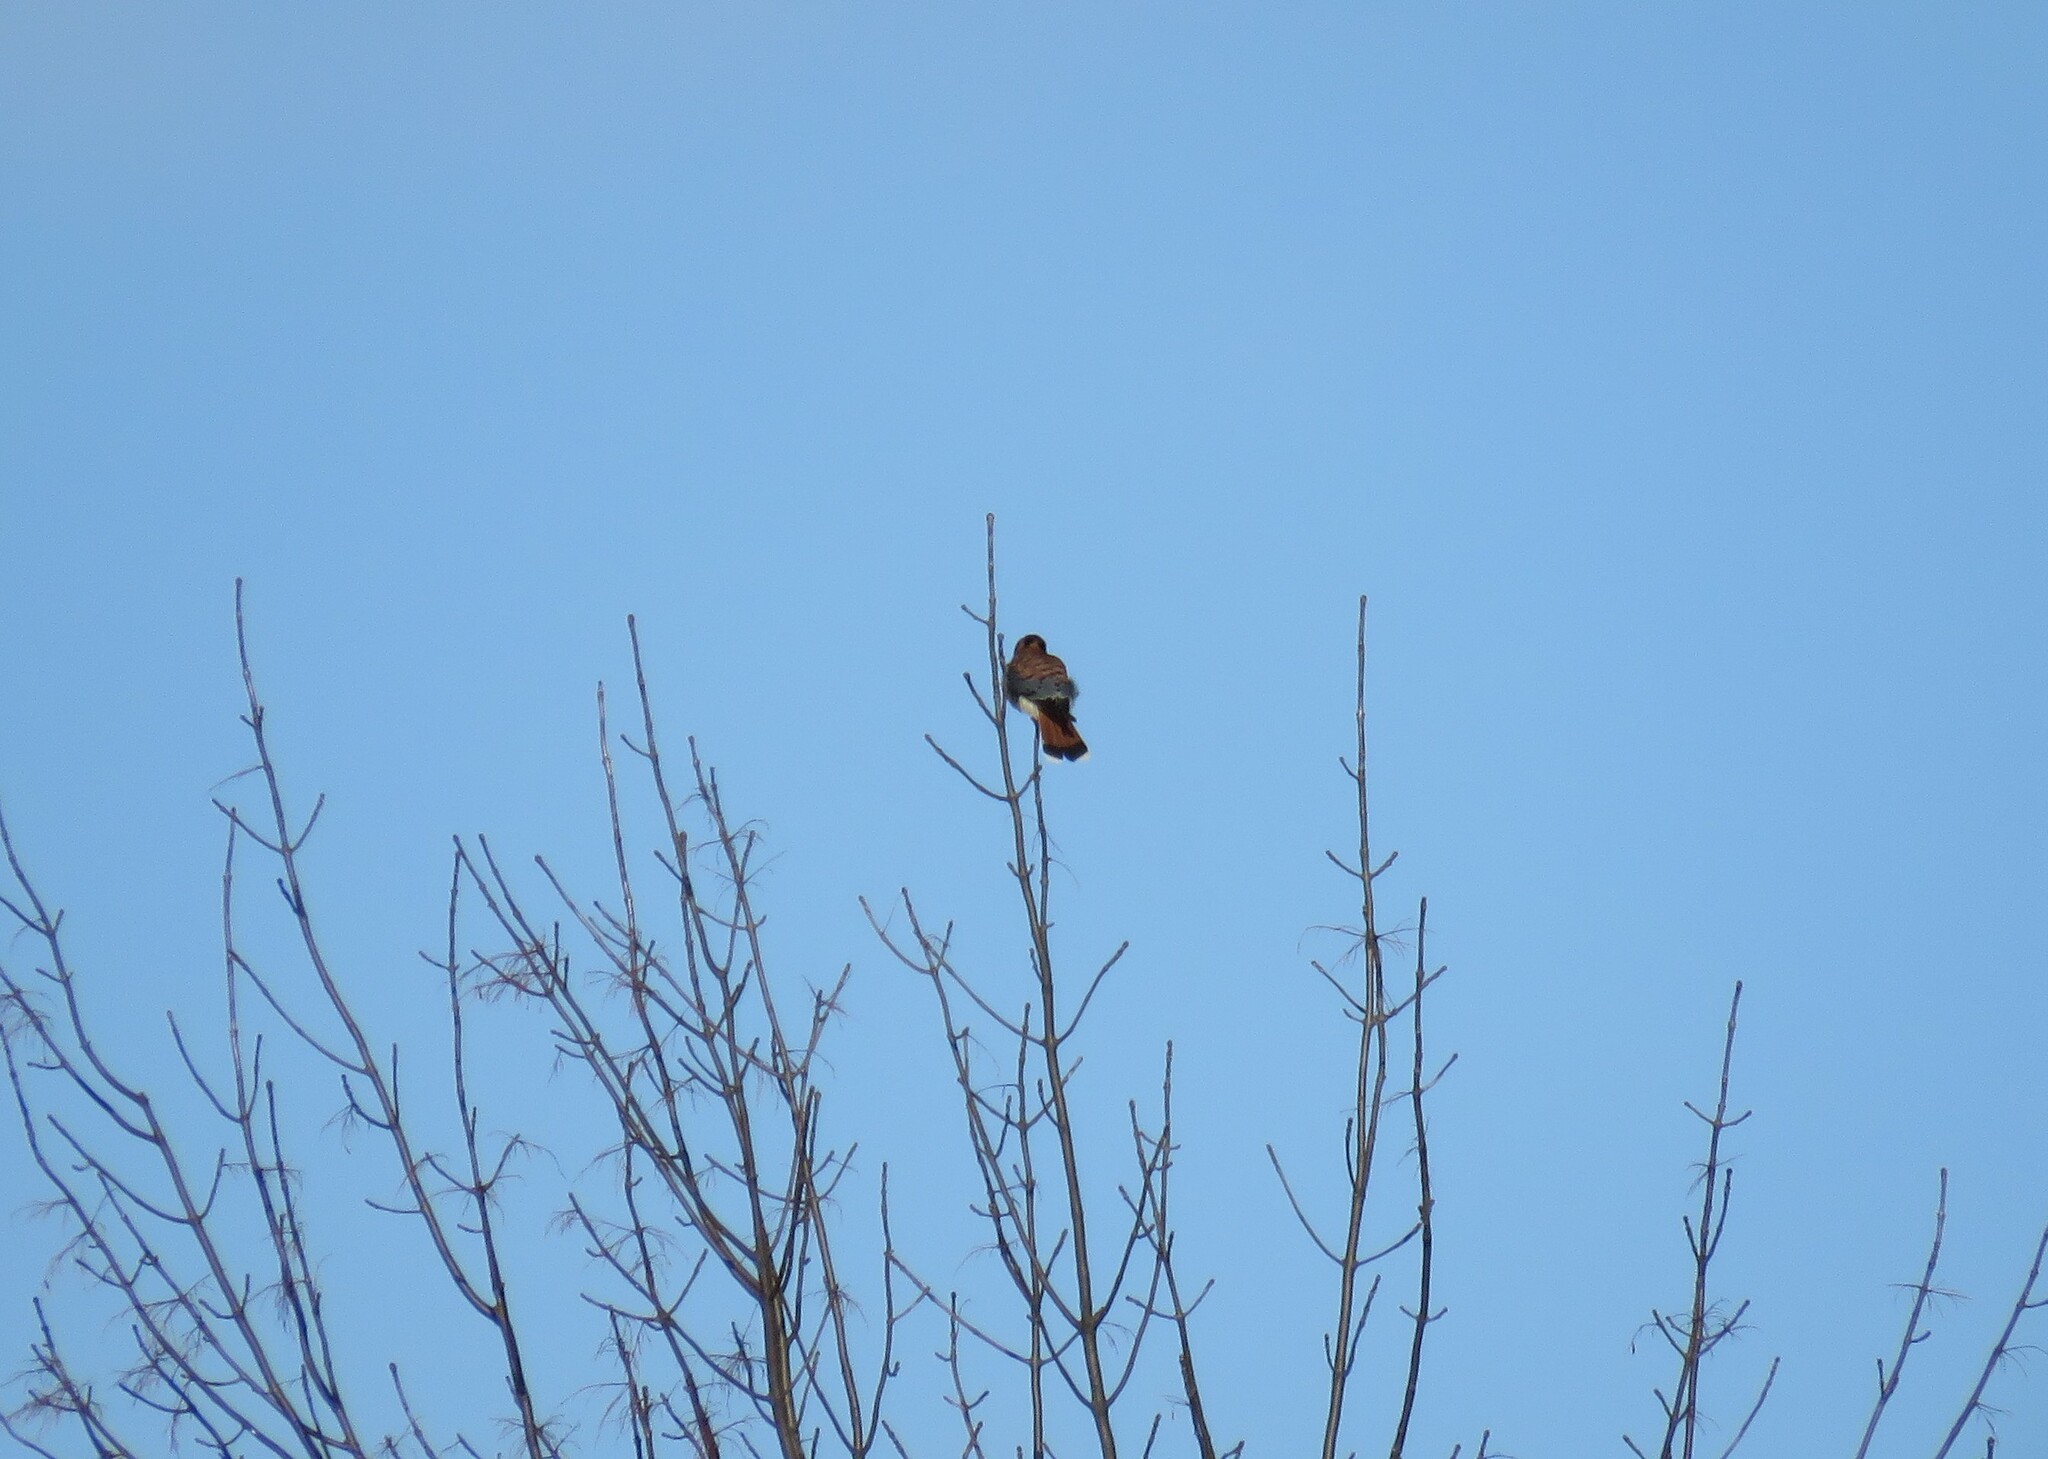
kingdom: Animalia
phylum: Chordata
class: Aves
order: Falconiformes
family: Falconidae
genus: Falco
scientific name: Falco sparverius
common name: American kestrel
